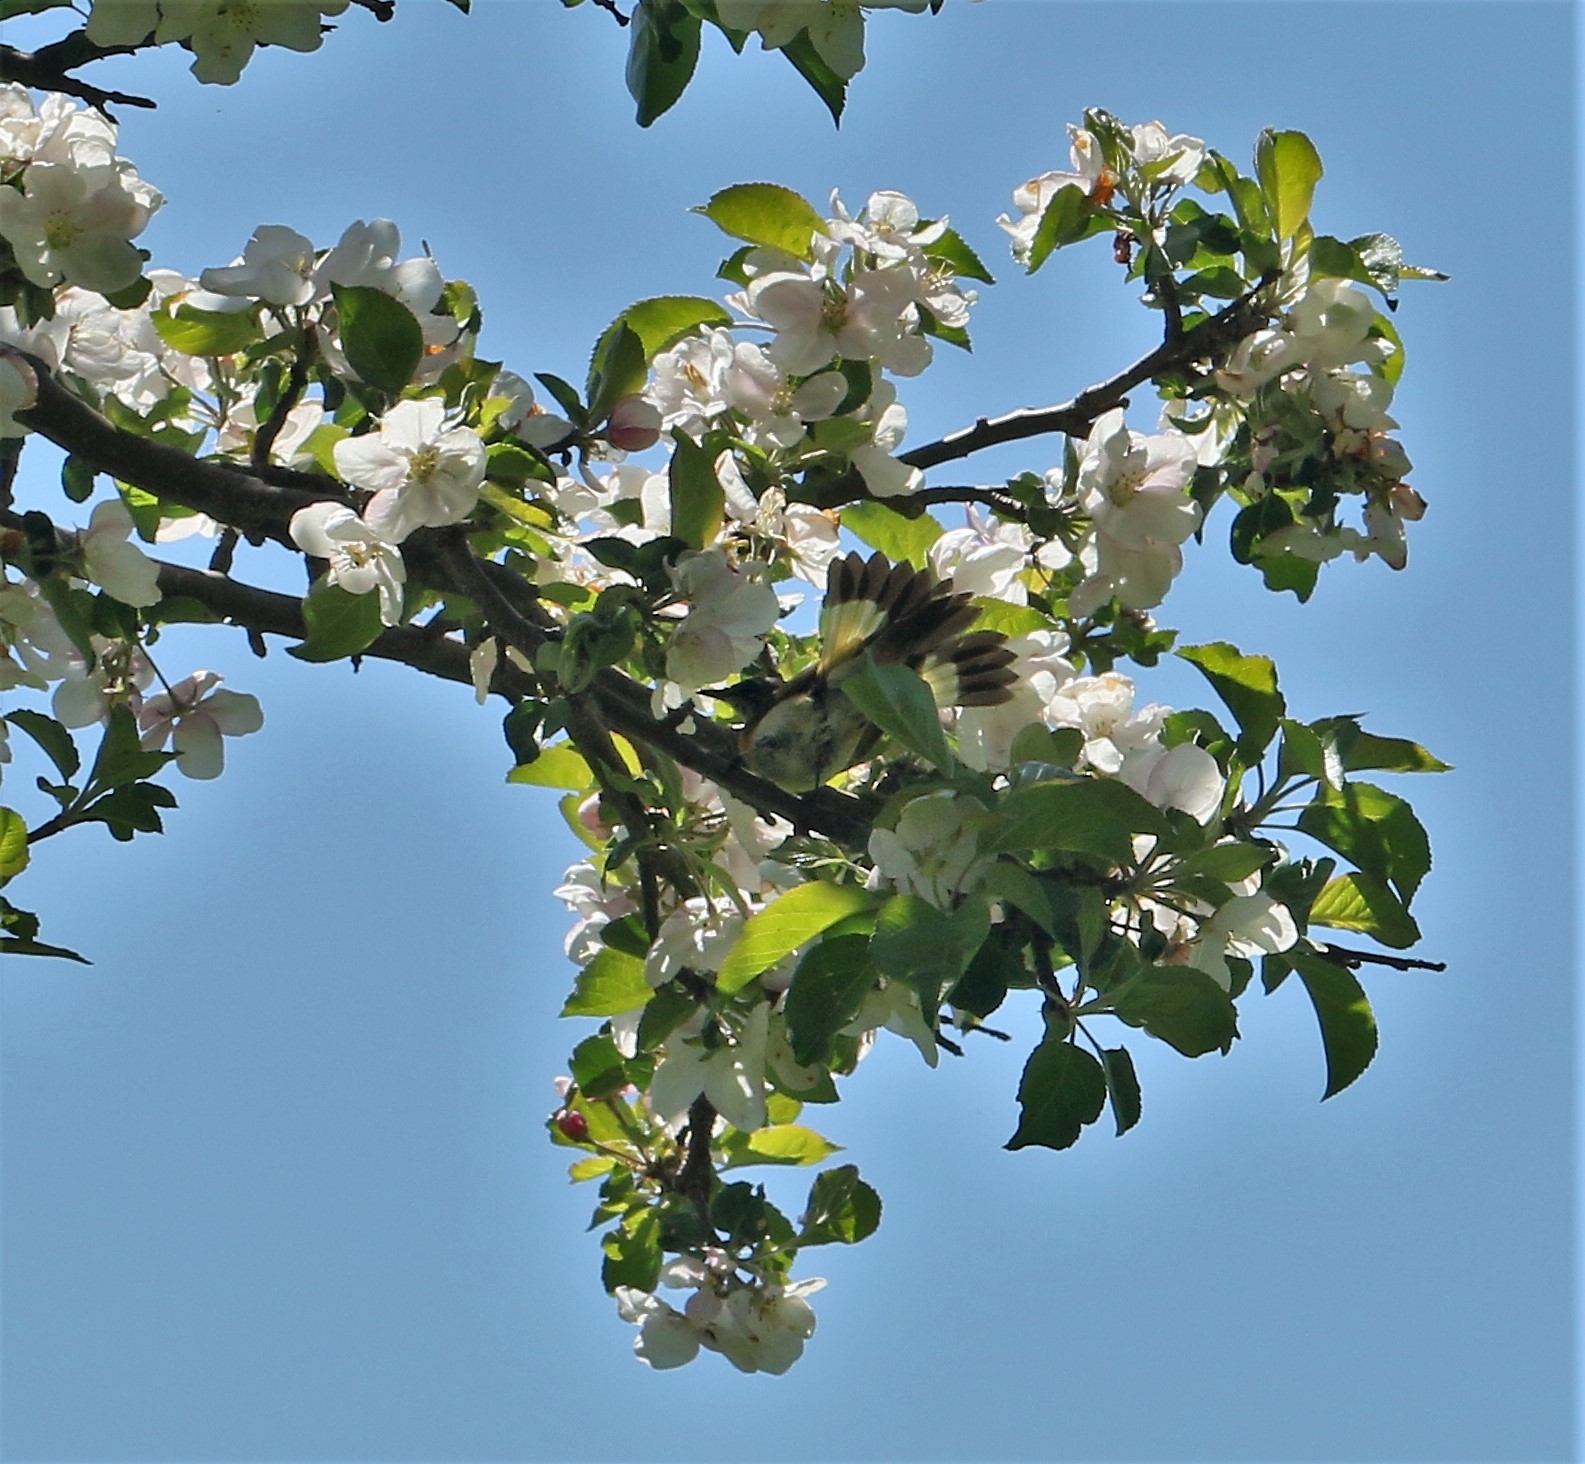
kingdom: Animalia
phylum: Chordata
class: Aves
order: Passeriformes
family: Parulidae
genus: Setophaga
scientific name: Setophaga ruticilla
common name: American redstart
